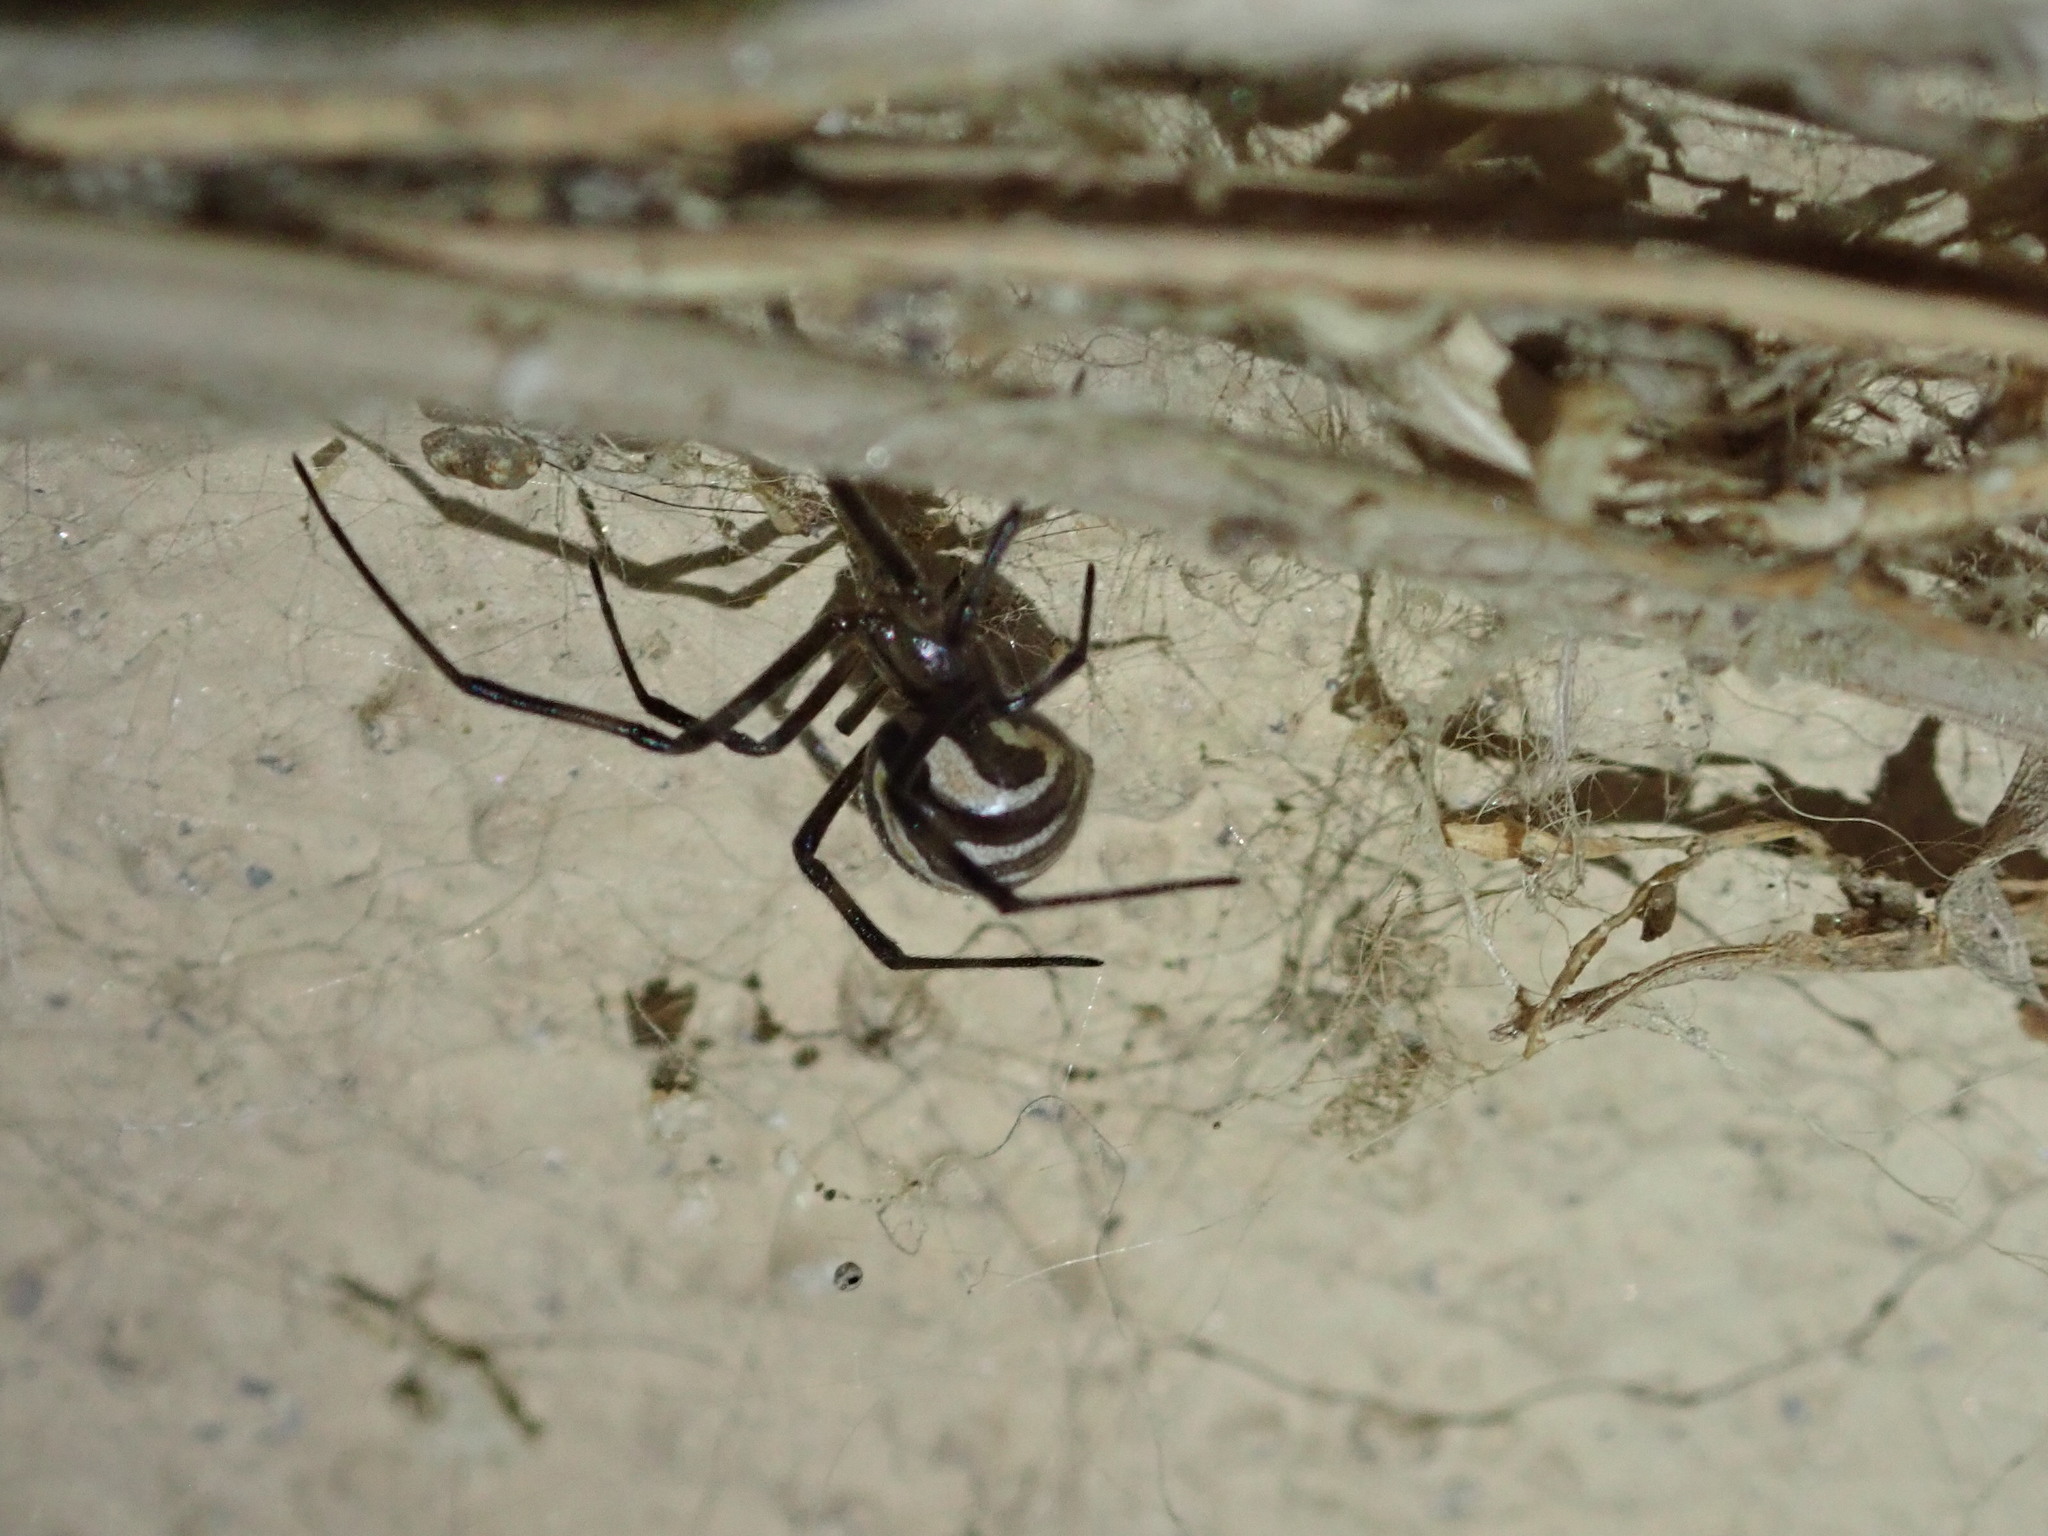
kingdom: Animalia
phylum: Arthropoda
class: Arachnida
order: Araneae
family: Theridiidae
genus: Latrodectus
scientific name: Latrodectus hesperus
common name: Western black widow
